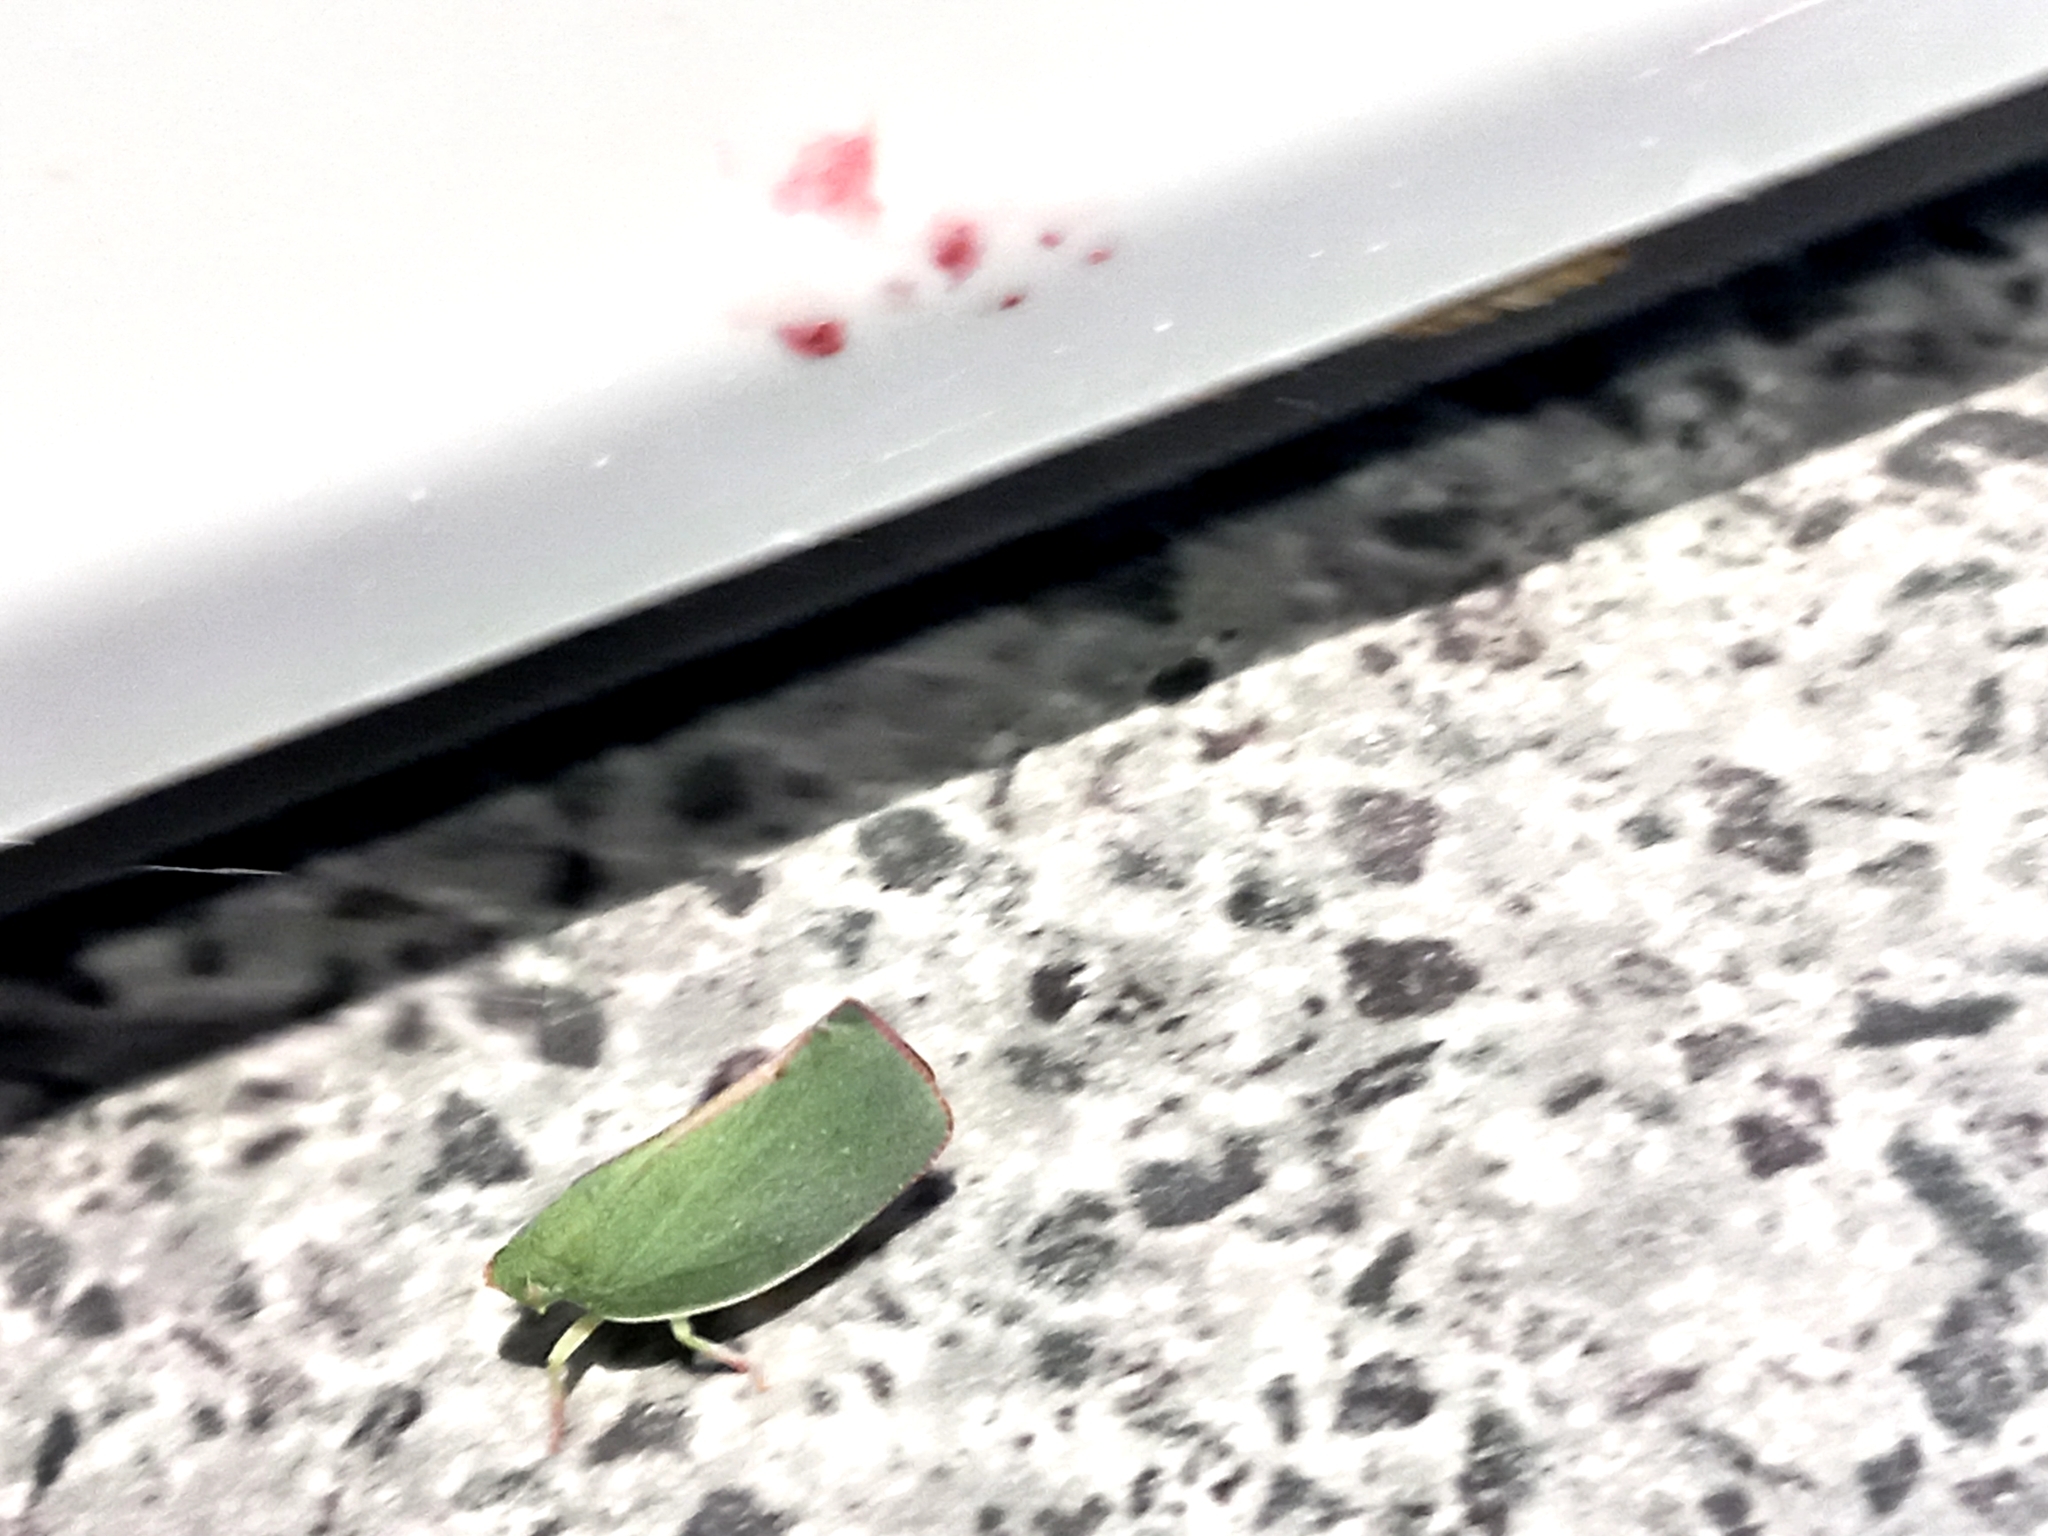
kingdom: Animalia
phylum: Arthropoda
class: Insecta
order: Hemiptera
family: Flatidae
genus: Siphanta
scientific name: Siphanta acuta
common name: Torpedo bug
